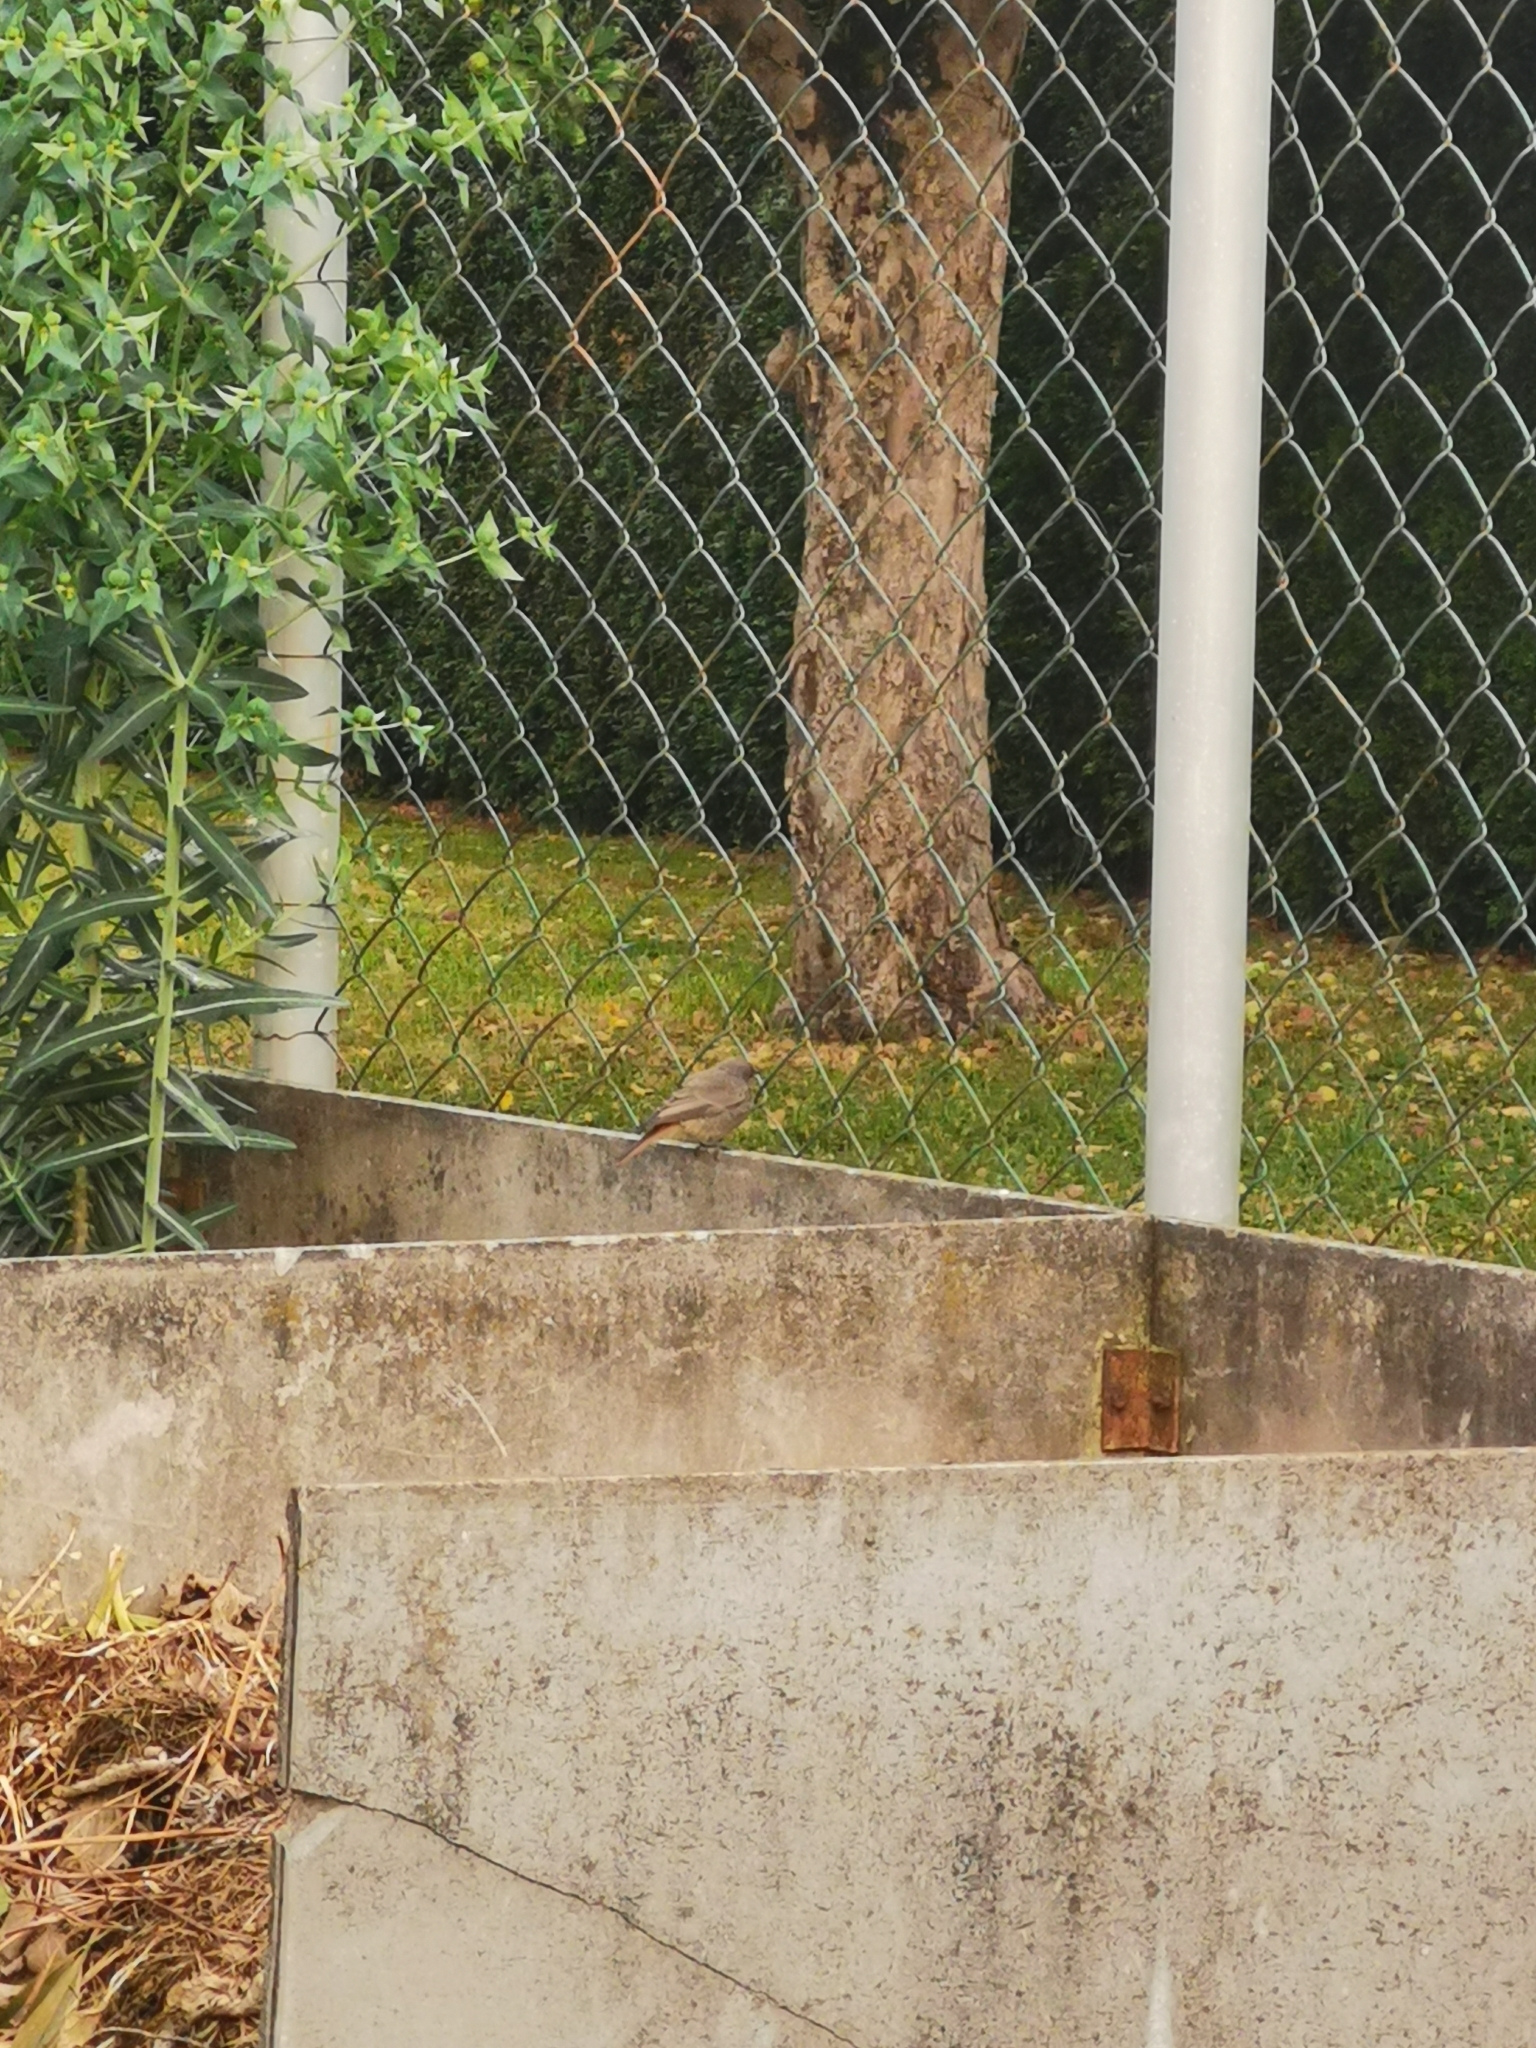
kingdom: Animalia
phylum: Chordata
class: Aves
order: Passeriformes
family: Muscicapidae
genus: Phoenicurus
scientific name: Phoenicurus ochruros
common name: Black redstart
